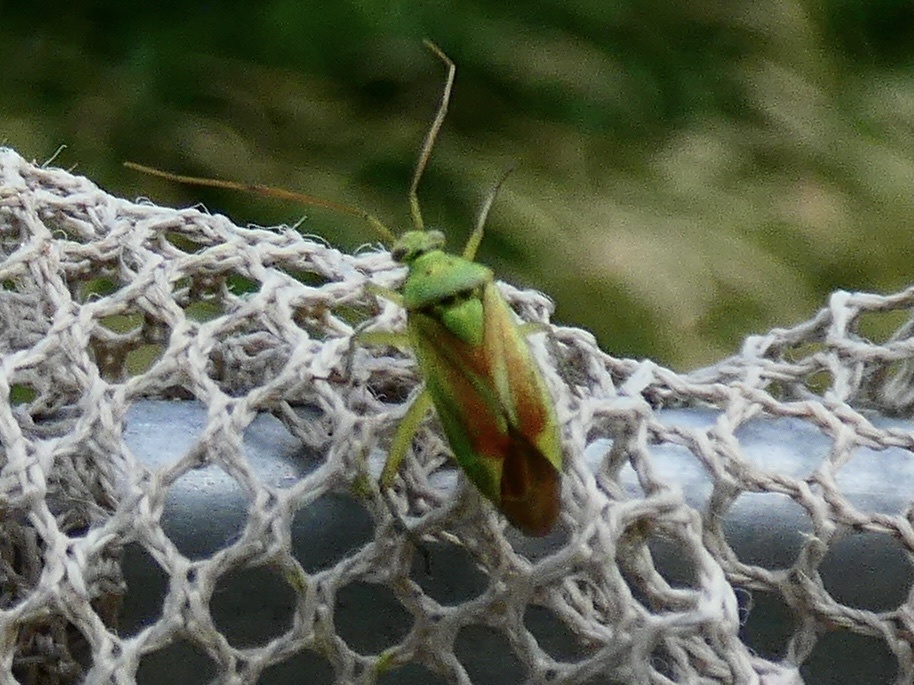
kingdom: Animalia
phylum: Arthropoda
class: Insecta
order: Hemiptera
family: Miridae
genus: Closterotomus
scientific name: Closterotomus norvegicus
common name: Plant bug
